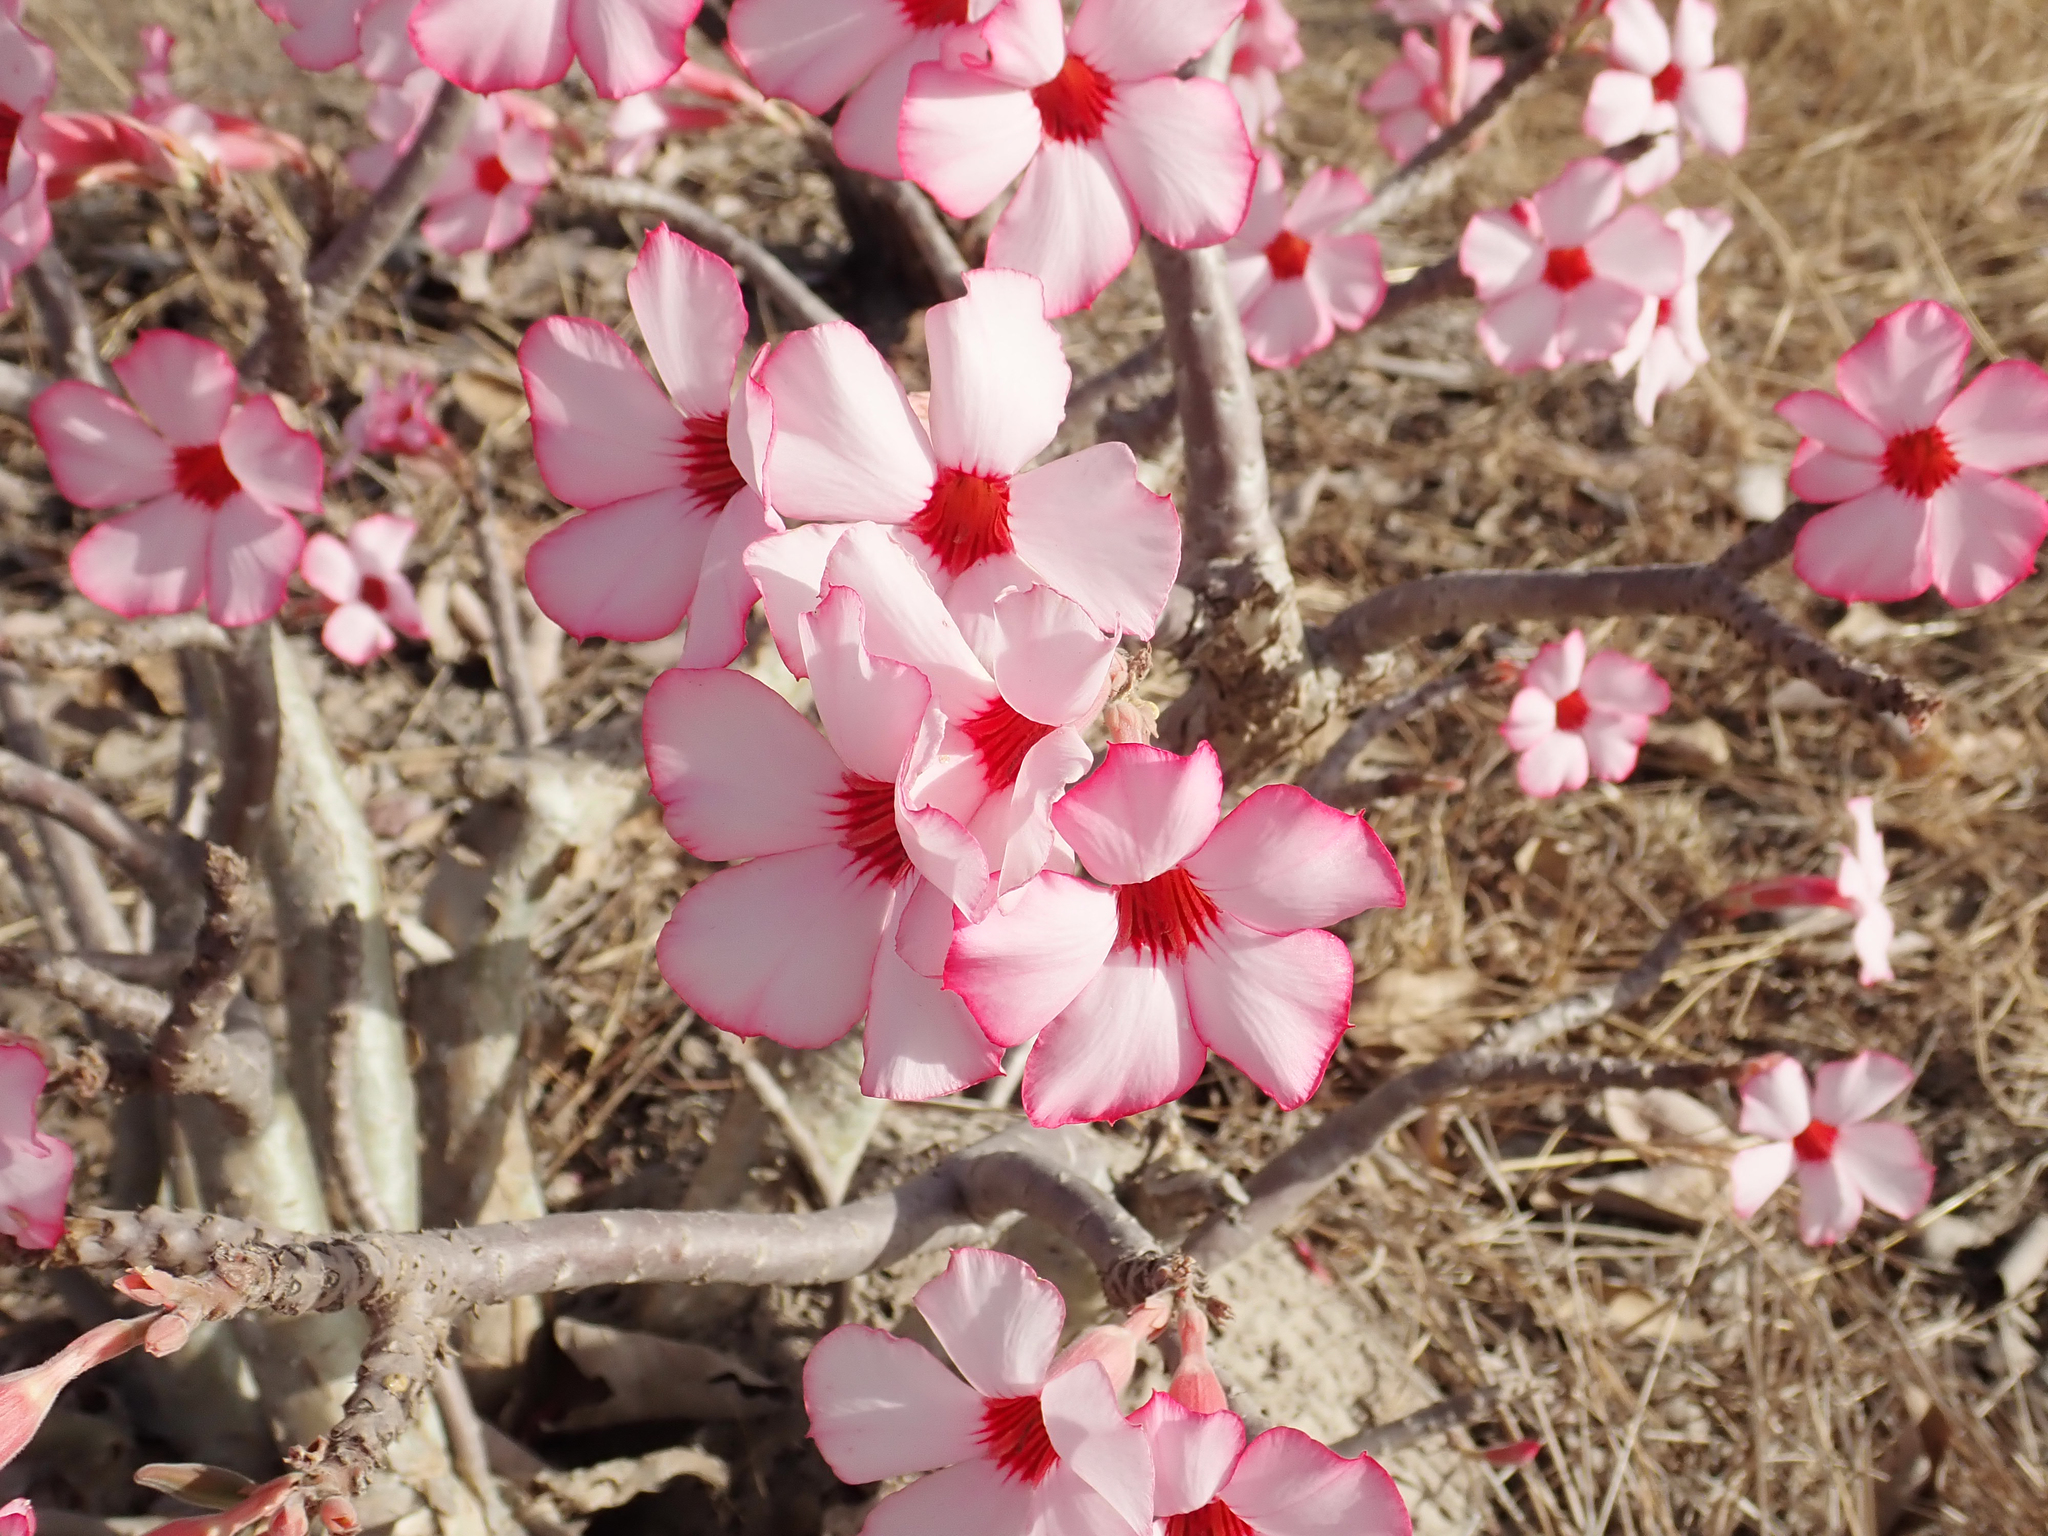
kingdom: Plantae
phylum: Tracheophyta
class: Magnoliopsida
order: Gentianales
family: Apocynaceae
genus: Adenium
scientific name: Adenium obesum
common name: Desert-rose
